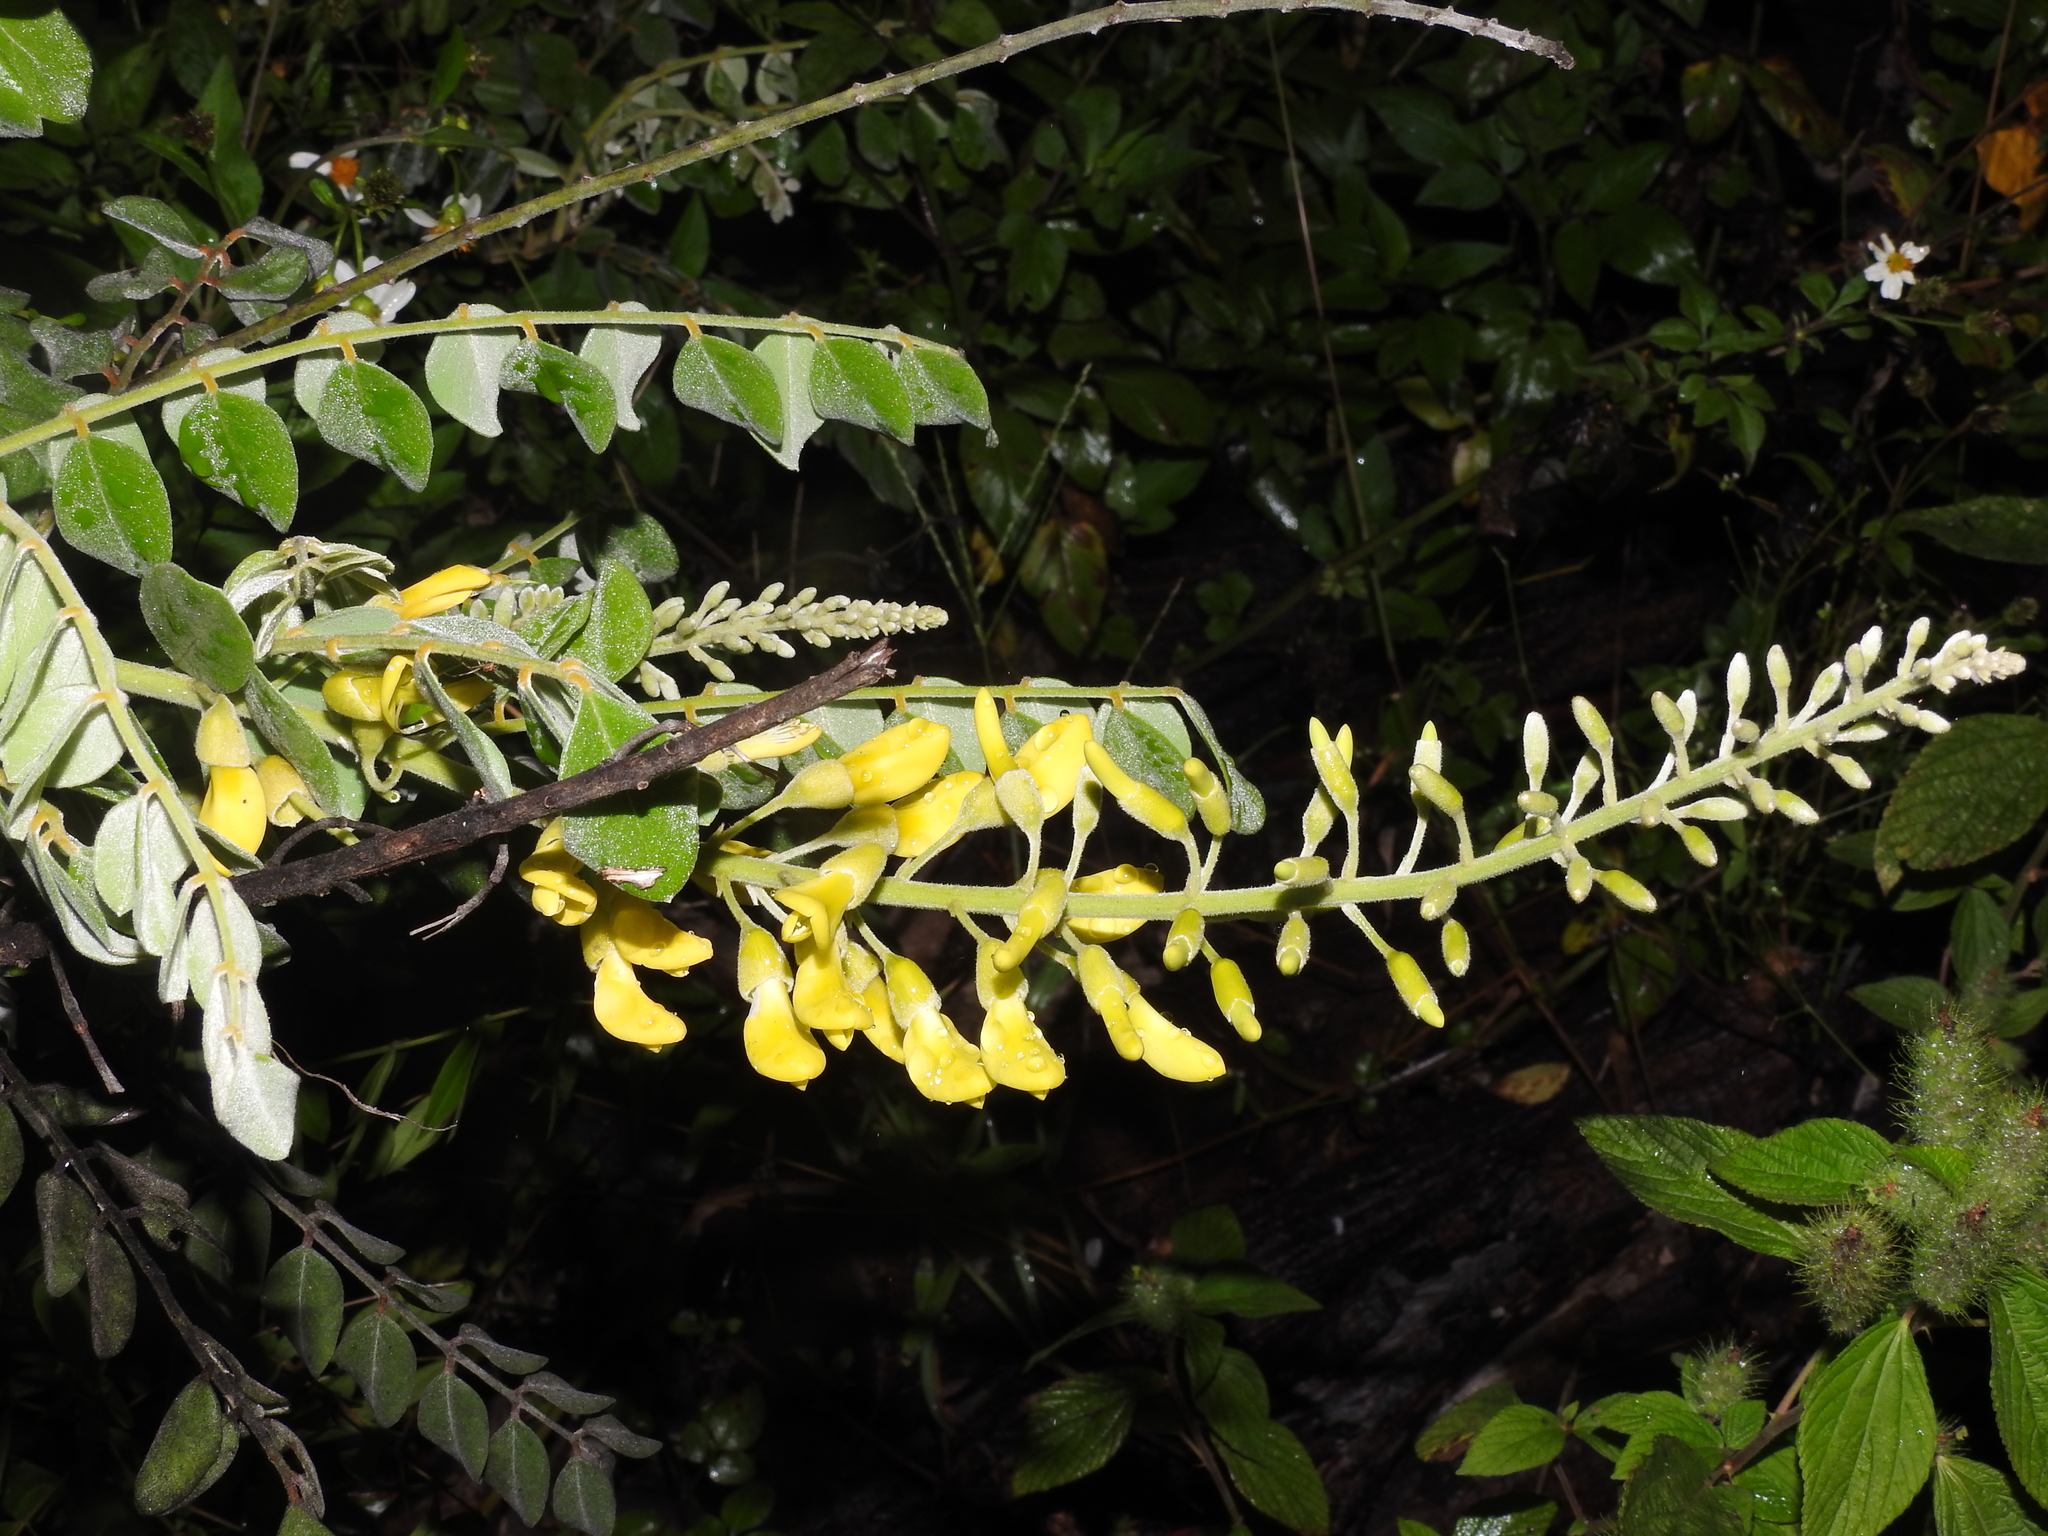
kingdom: Plantae
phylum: Tracheophyta
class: Magnoliopsida
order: Fabales
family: Fabaceae
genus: Sophora
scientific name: Sophora tomentosa
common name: Yellow necklacepod
